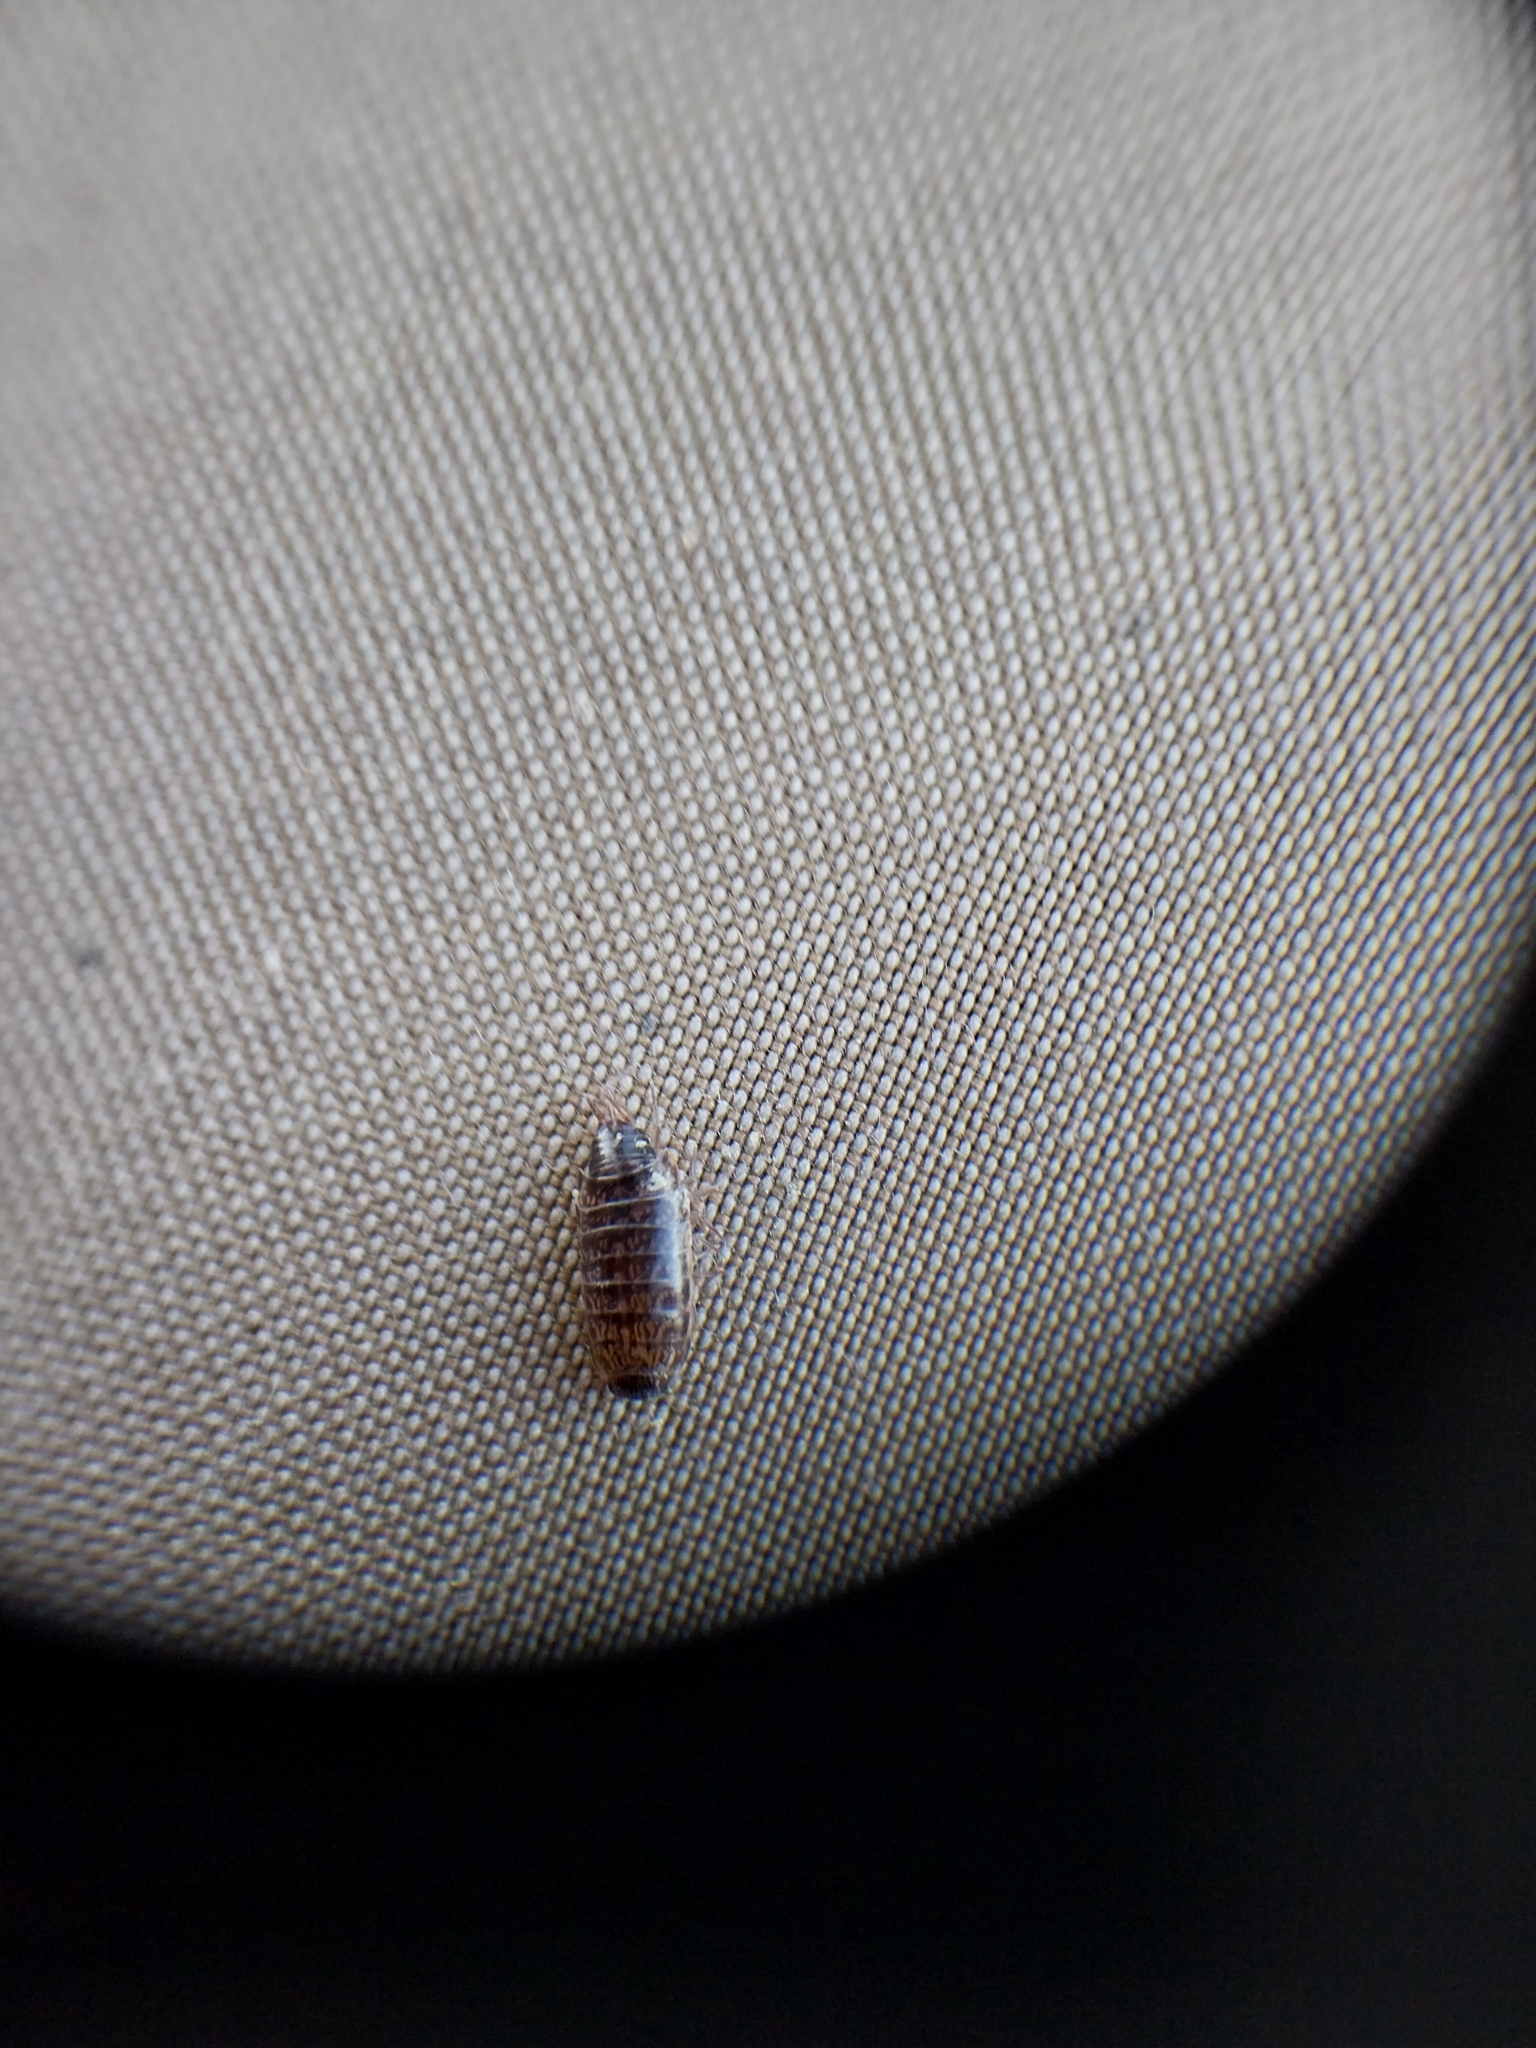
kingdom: Animalia
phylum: Arthropoda
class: Malacostraca
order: Isopoda
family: Philosciidae
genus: Chaetophiloscia
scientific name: Chaetophiloscia elongata
